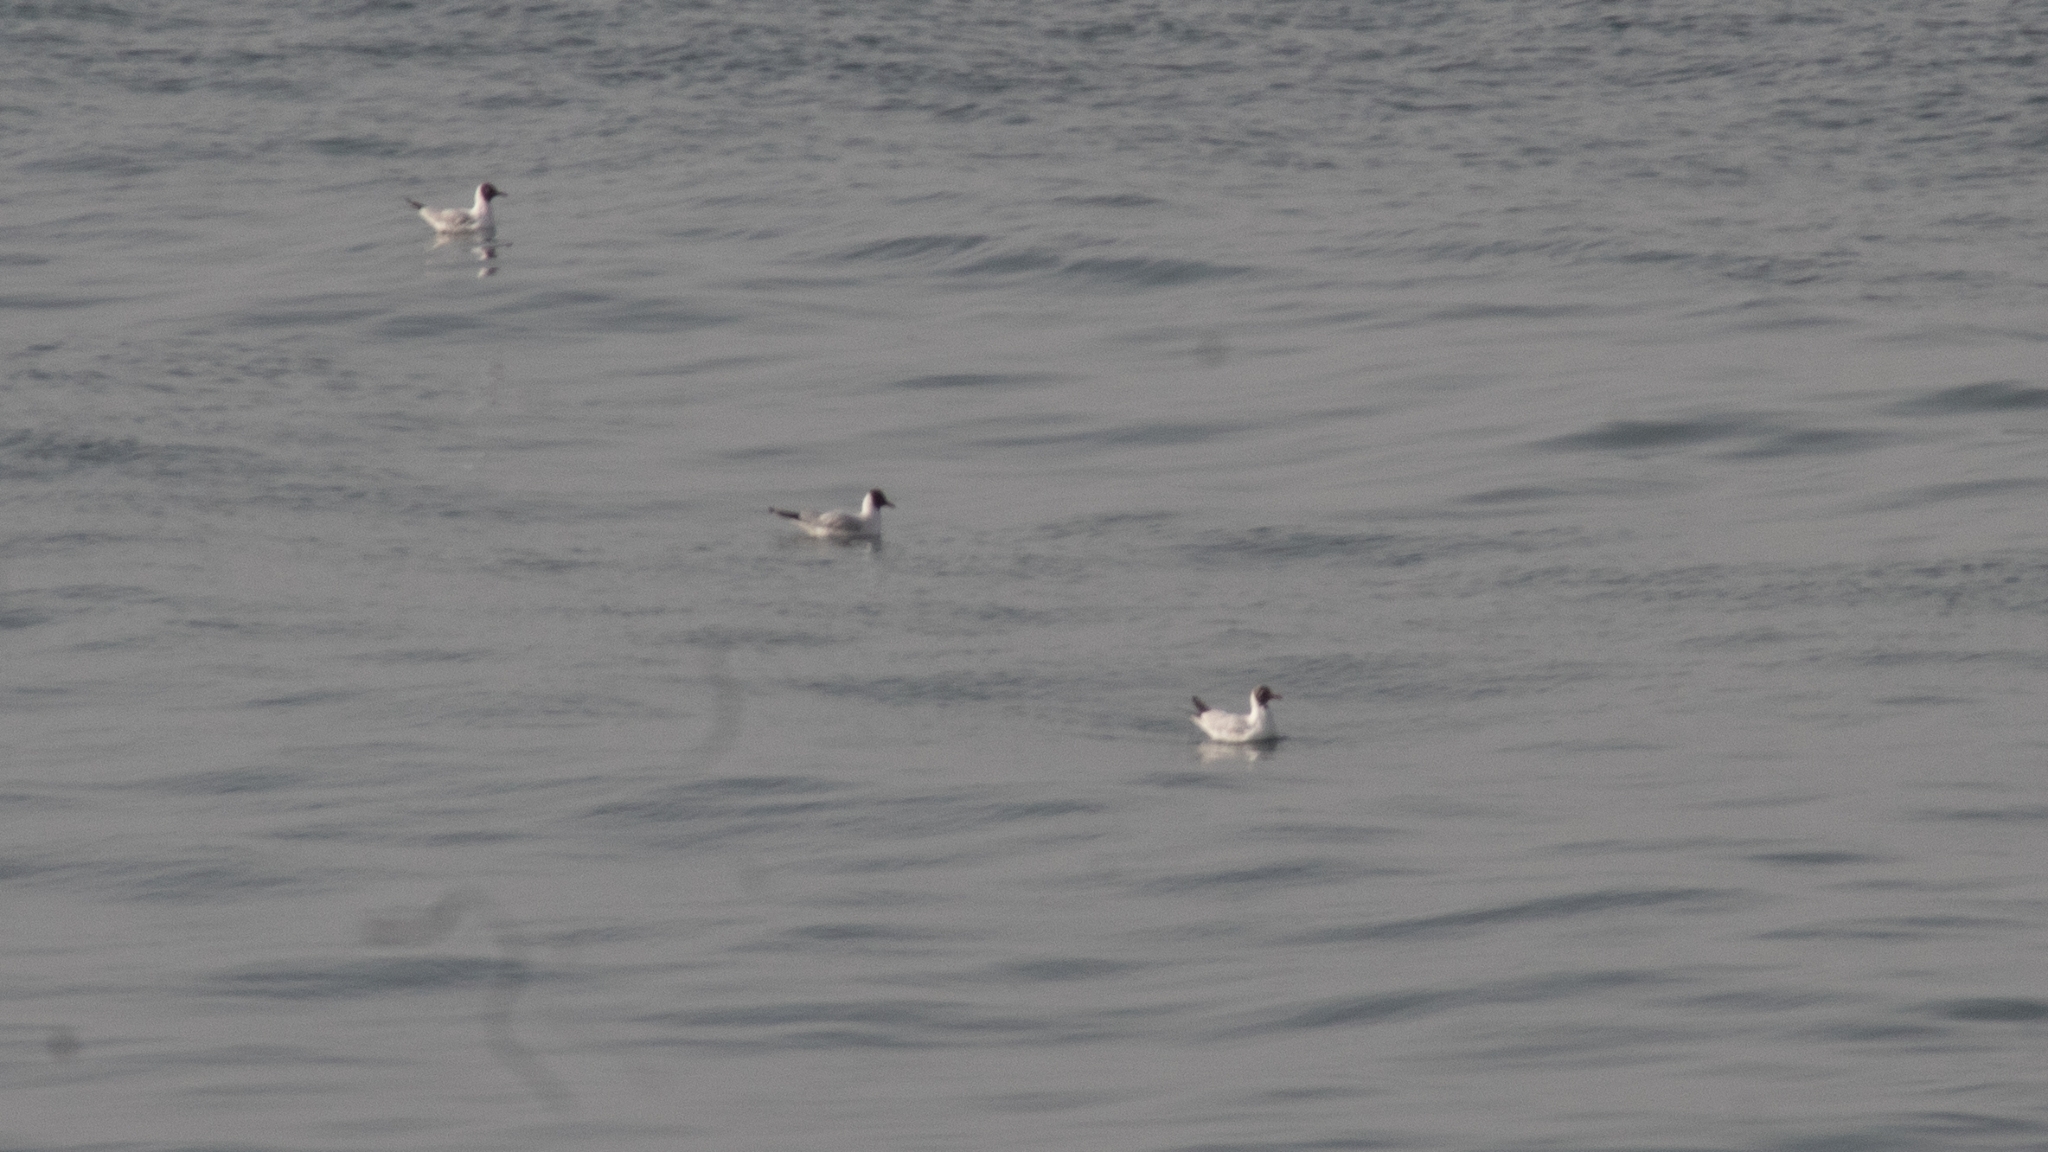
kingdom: Animalia
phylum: Chordata
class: Aves
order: Charadriiformes
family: Laridae
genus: Chroicocephalus
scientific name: Chroicocephalus ridibundus
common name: Black-headed gull
